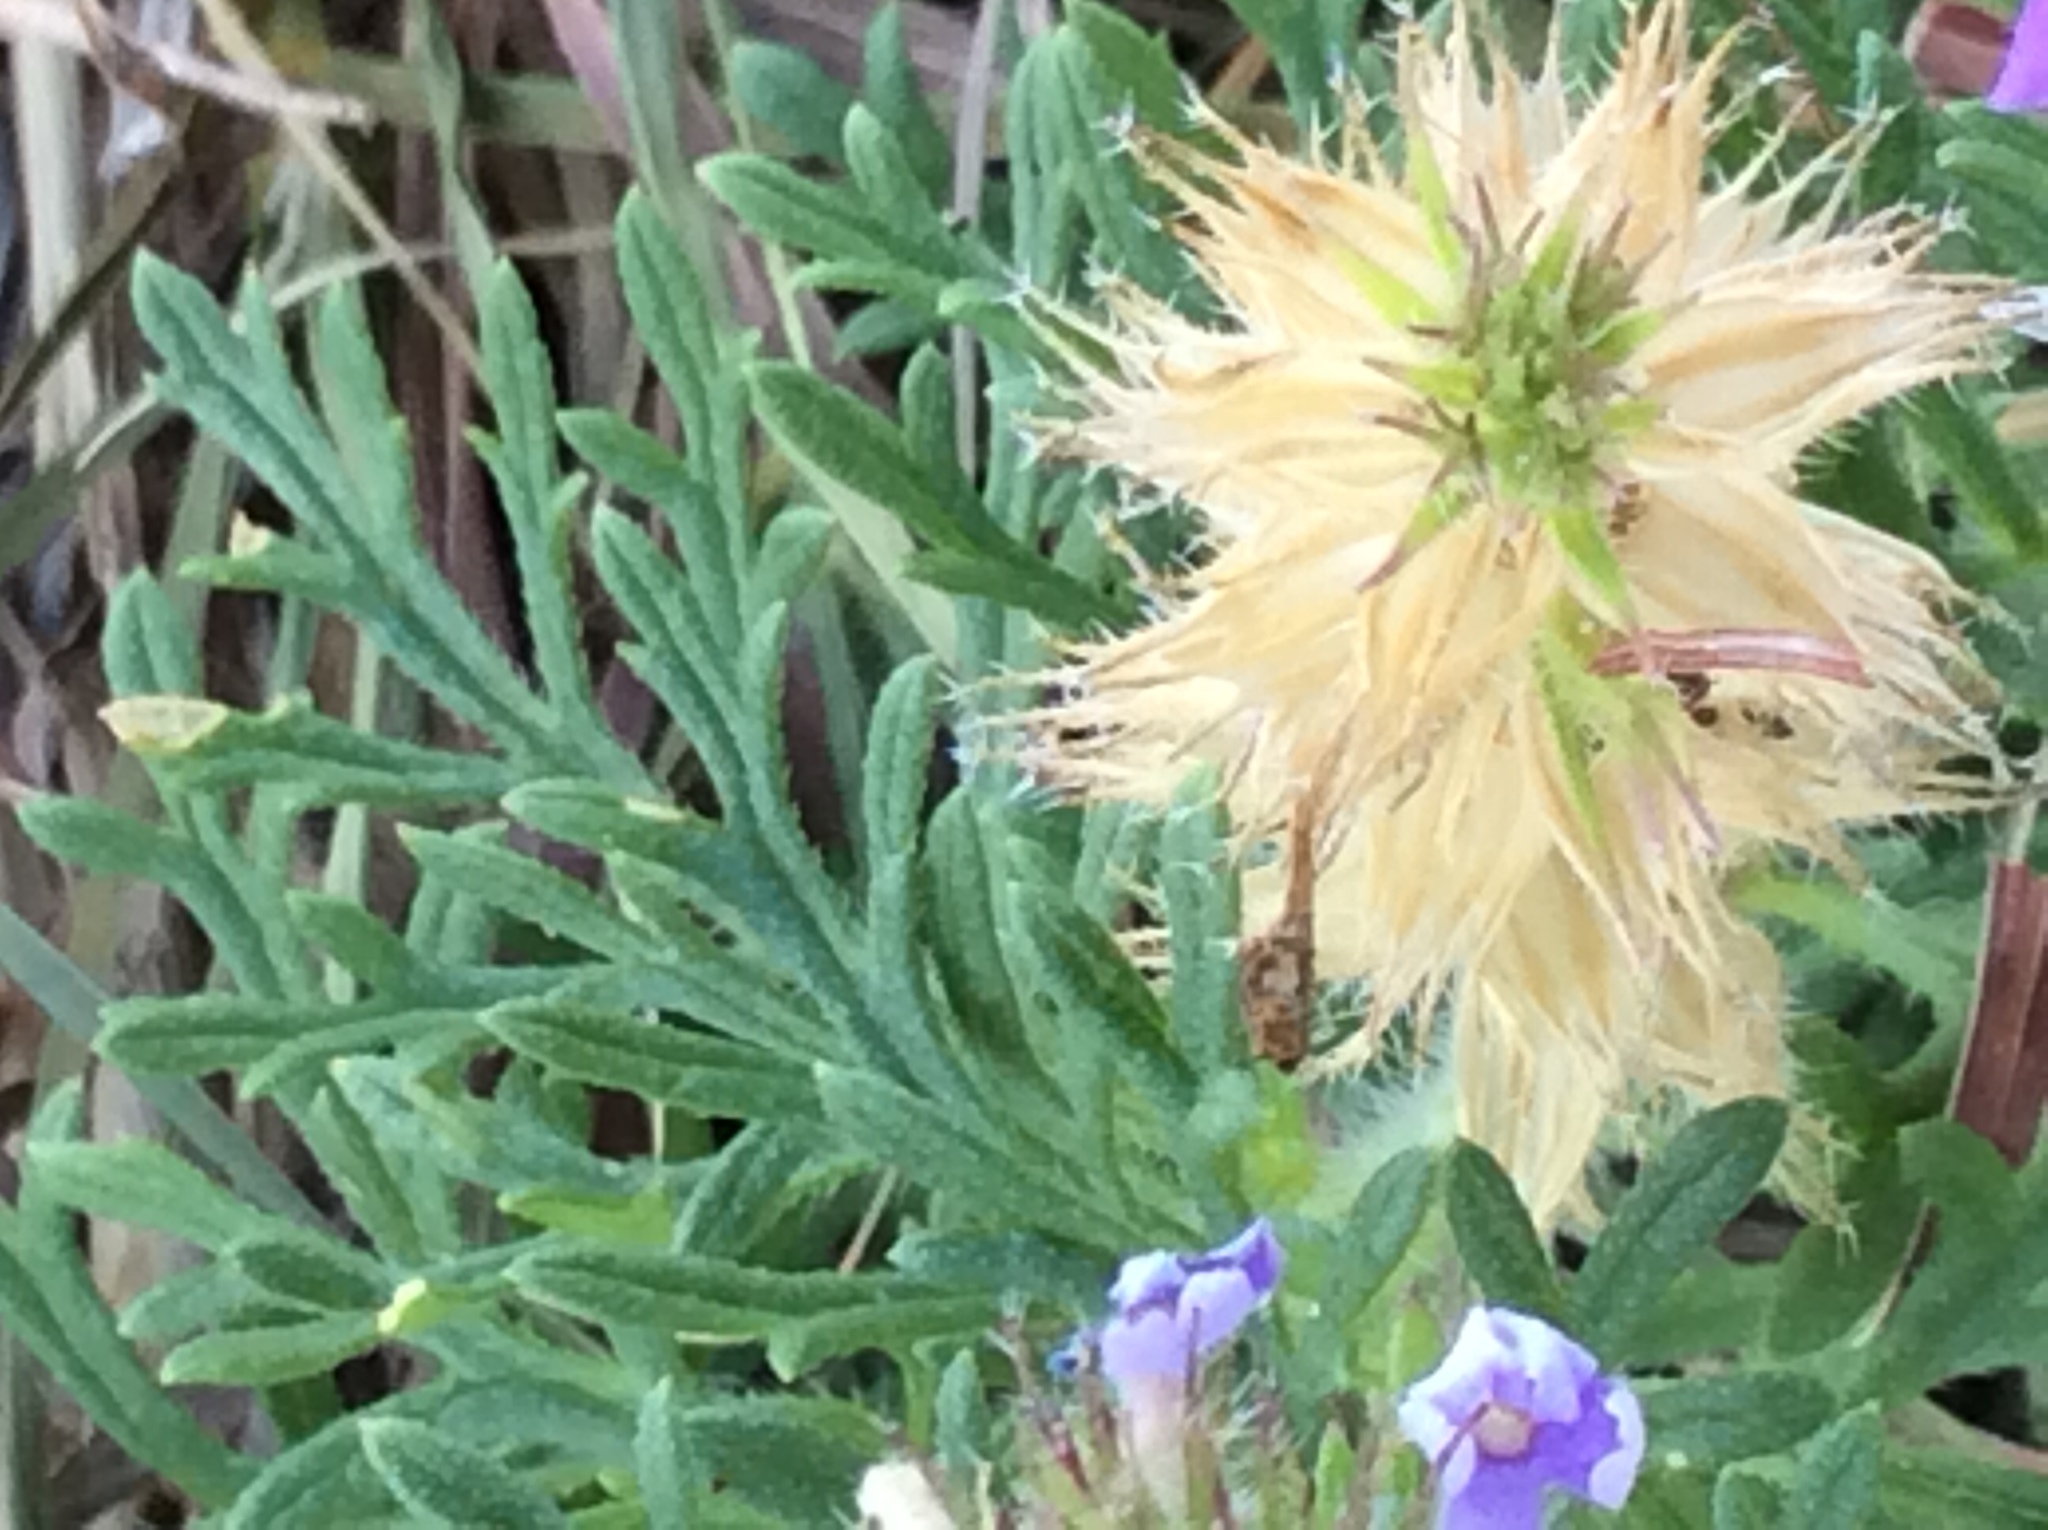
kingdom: Plantae
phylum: Tracheophyta
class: Magnoliopsida
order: Lamiales
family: Verbenaceae
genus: Verbena
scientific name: Verbena bipinnatifida
